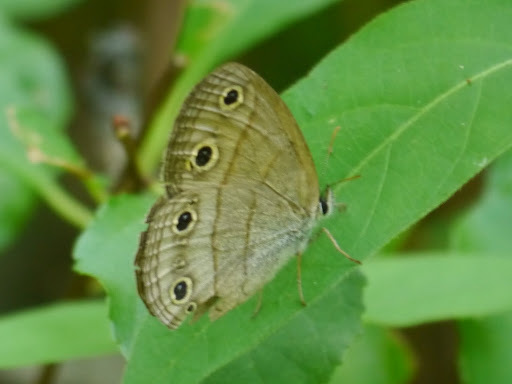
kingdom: Animalia
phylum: Arthropoda
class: Insecta
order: Lepidoptera
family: Nymphalidae
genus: Euptychia
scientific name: Euptychia cymela
